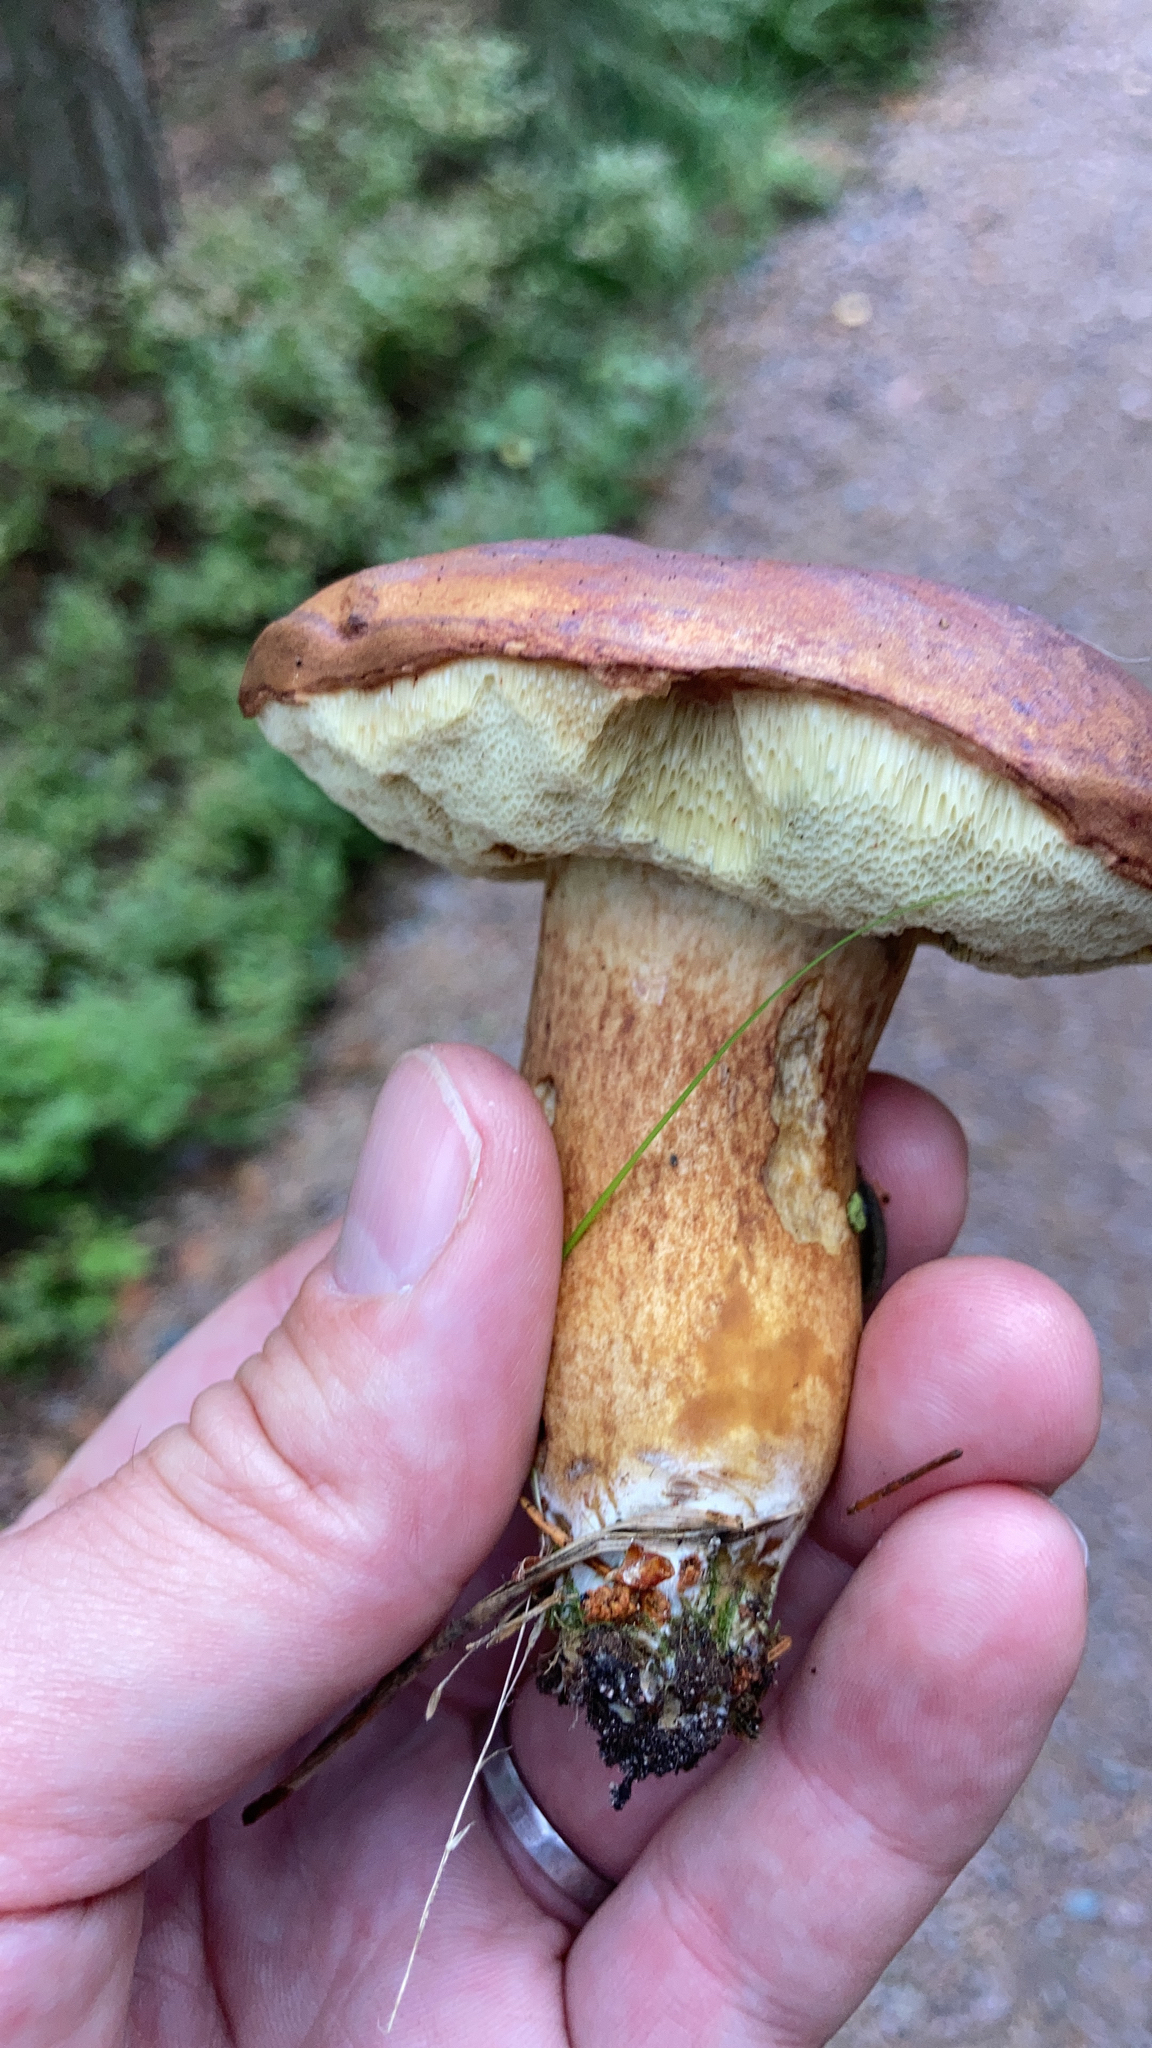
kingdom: Fungi
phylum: Basidiomycota
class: Agaricomycetes
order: Boletales
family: Boletaceae
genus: Imleria
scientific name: Imleria badia
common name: Bay bolete
